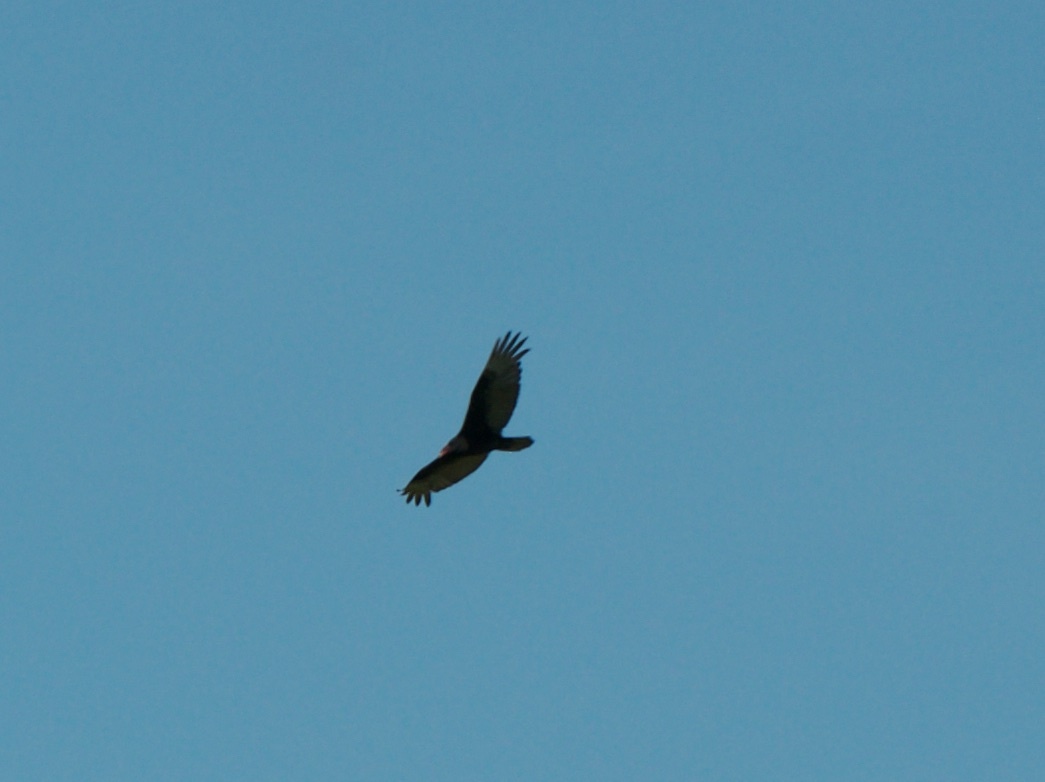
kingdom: Animalia
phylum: Chordata
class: Aves
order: Accipitriformes
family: Cathartidae
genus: Cathartes
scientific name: Cathartes aura
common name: Turkey vulture
